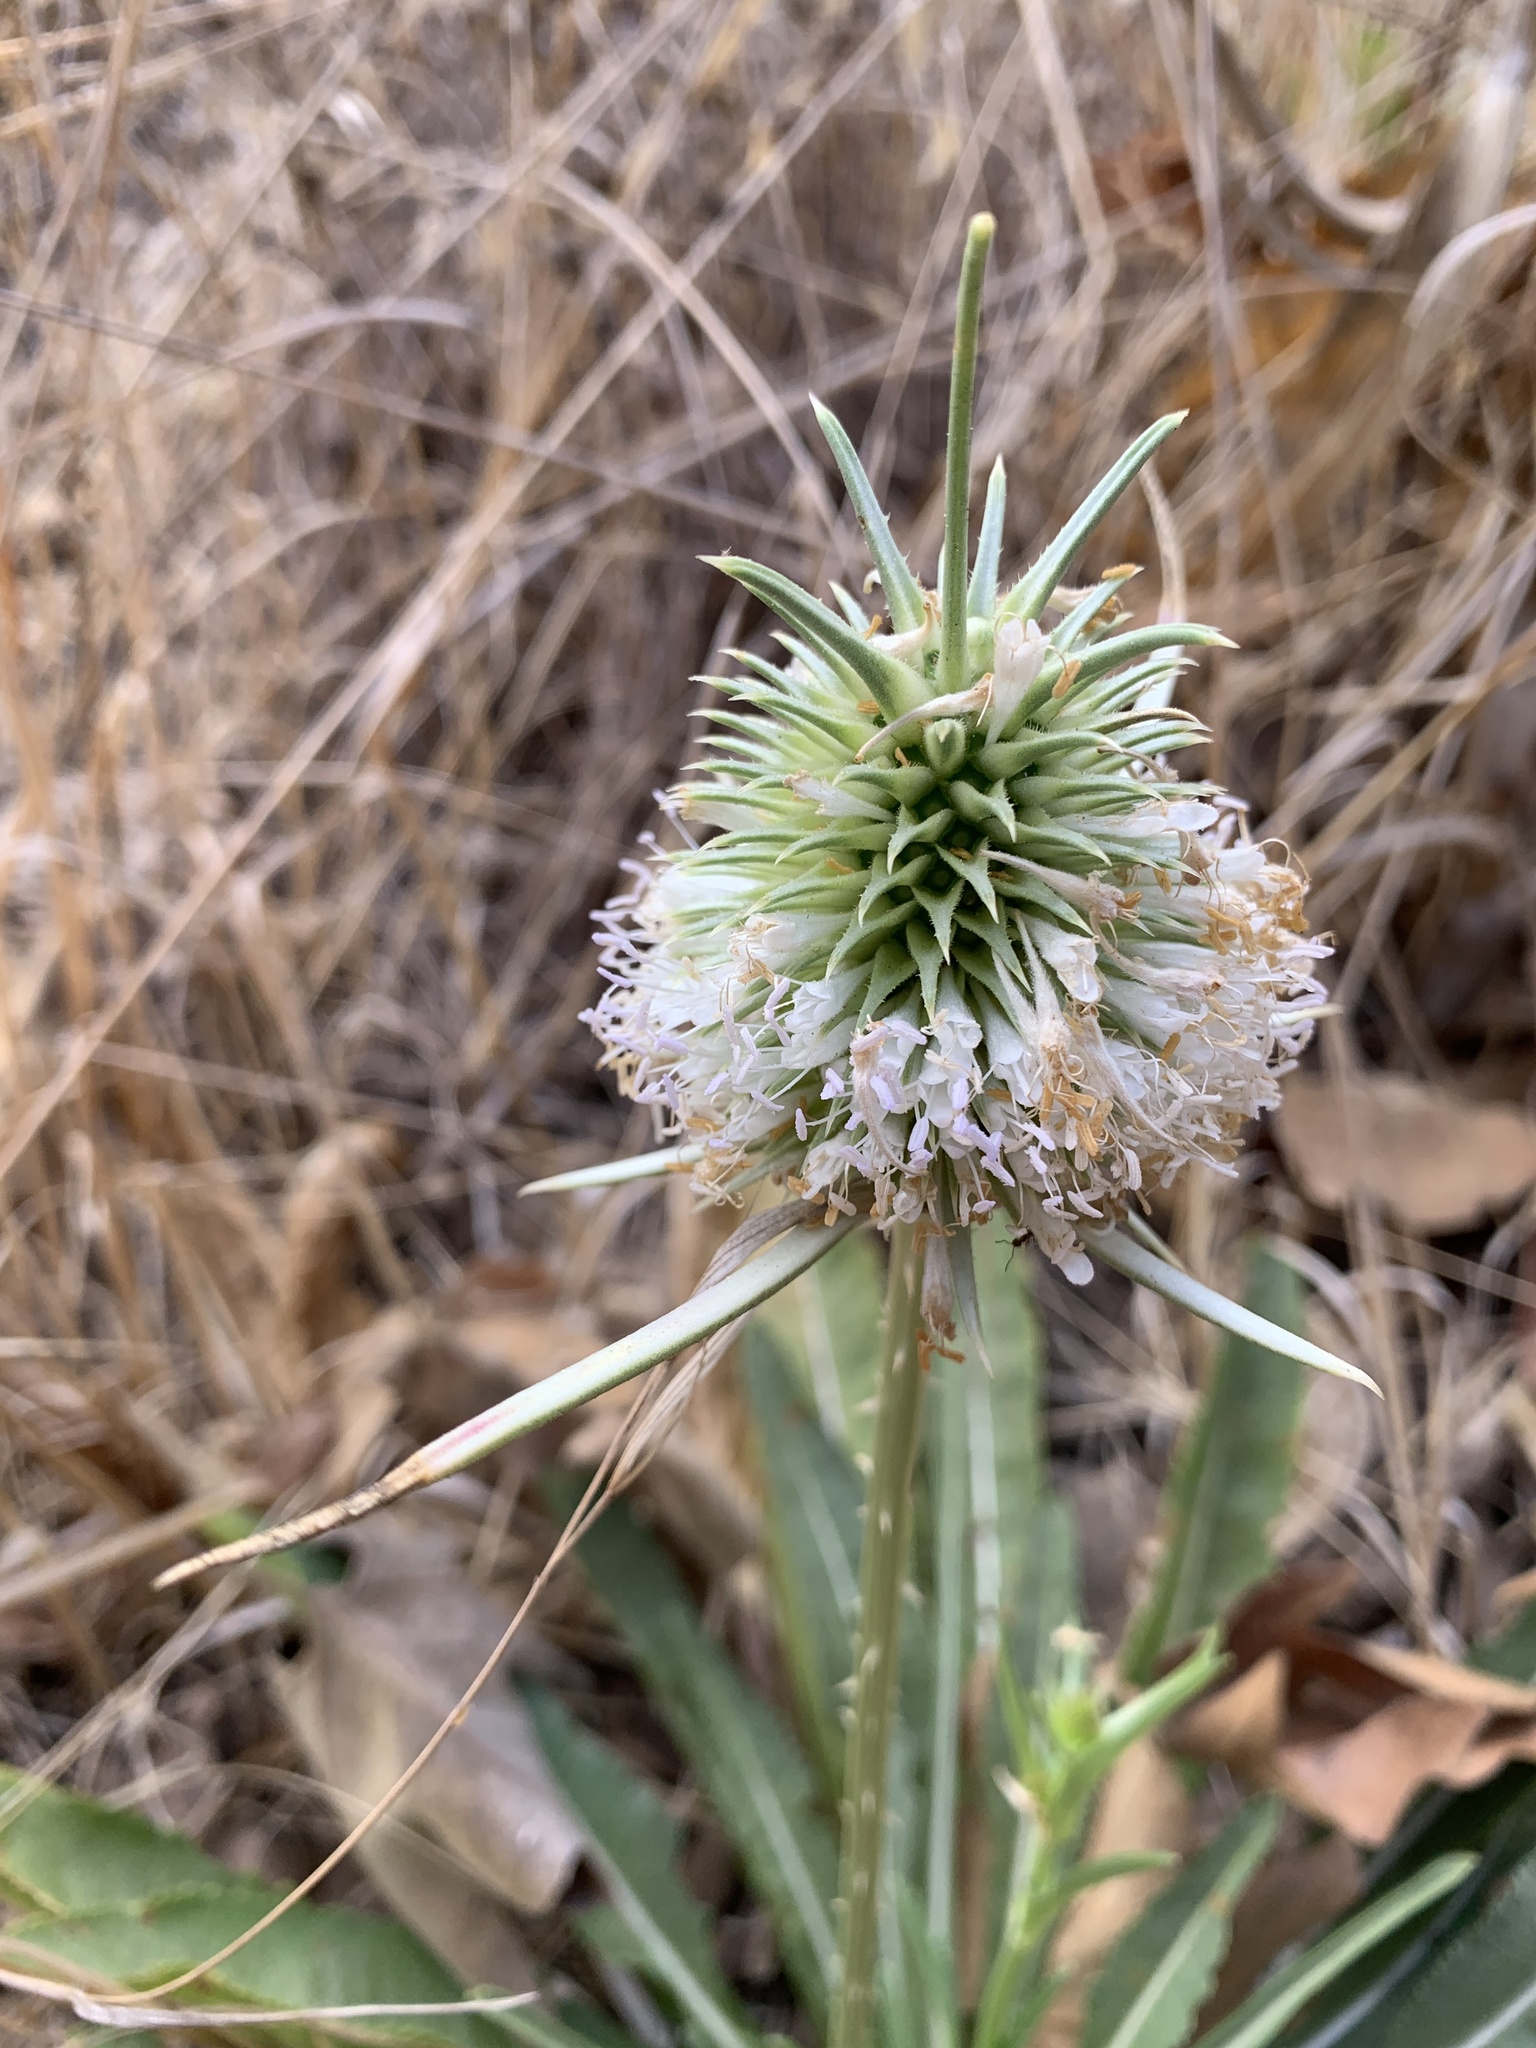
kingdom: Plantae
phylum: Tracheophyta
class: Magnoliopsida
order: Dipsacales
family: Caprifoliaceae
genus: Dipsacus
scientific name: Dipsacus sativus
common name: Fuller's teasel
